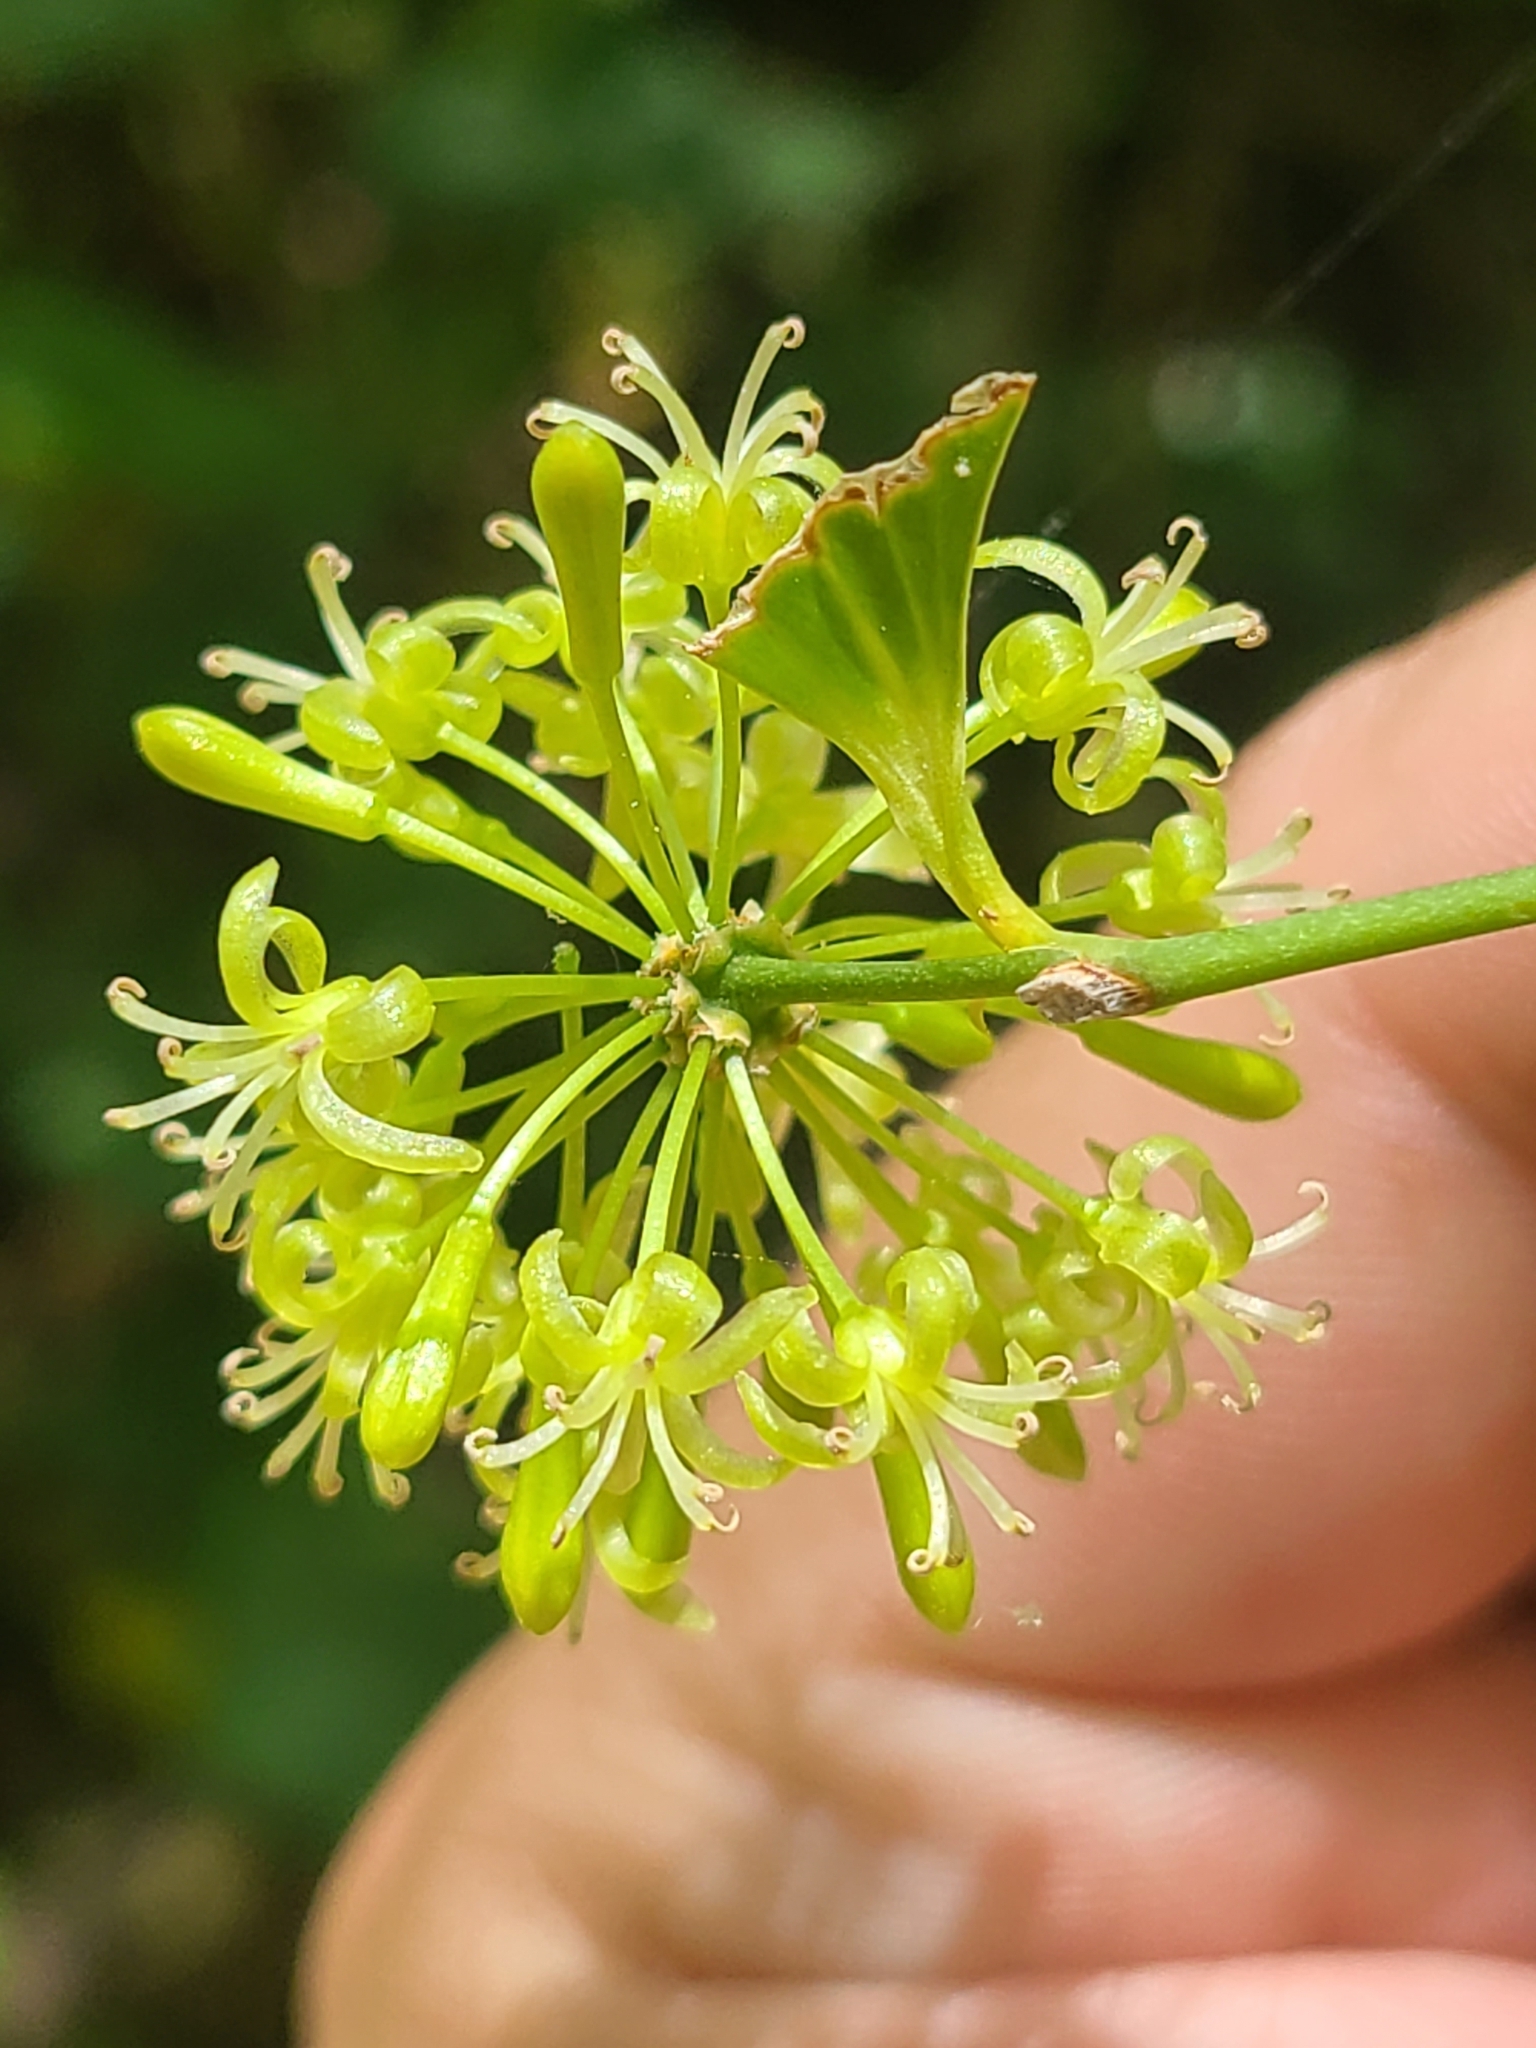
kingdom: Plantae
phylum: Tracheophyta
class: Liliopsida
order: Liliales
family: Smilacaceae
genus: Smilax
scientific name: Smilax glauca
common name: Cat greenbrier
